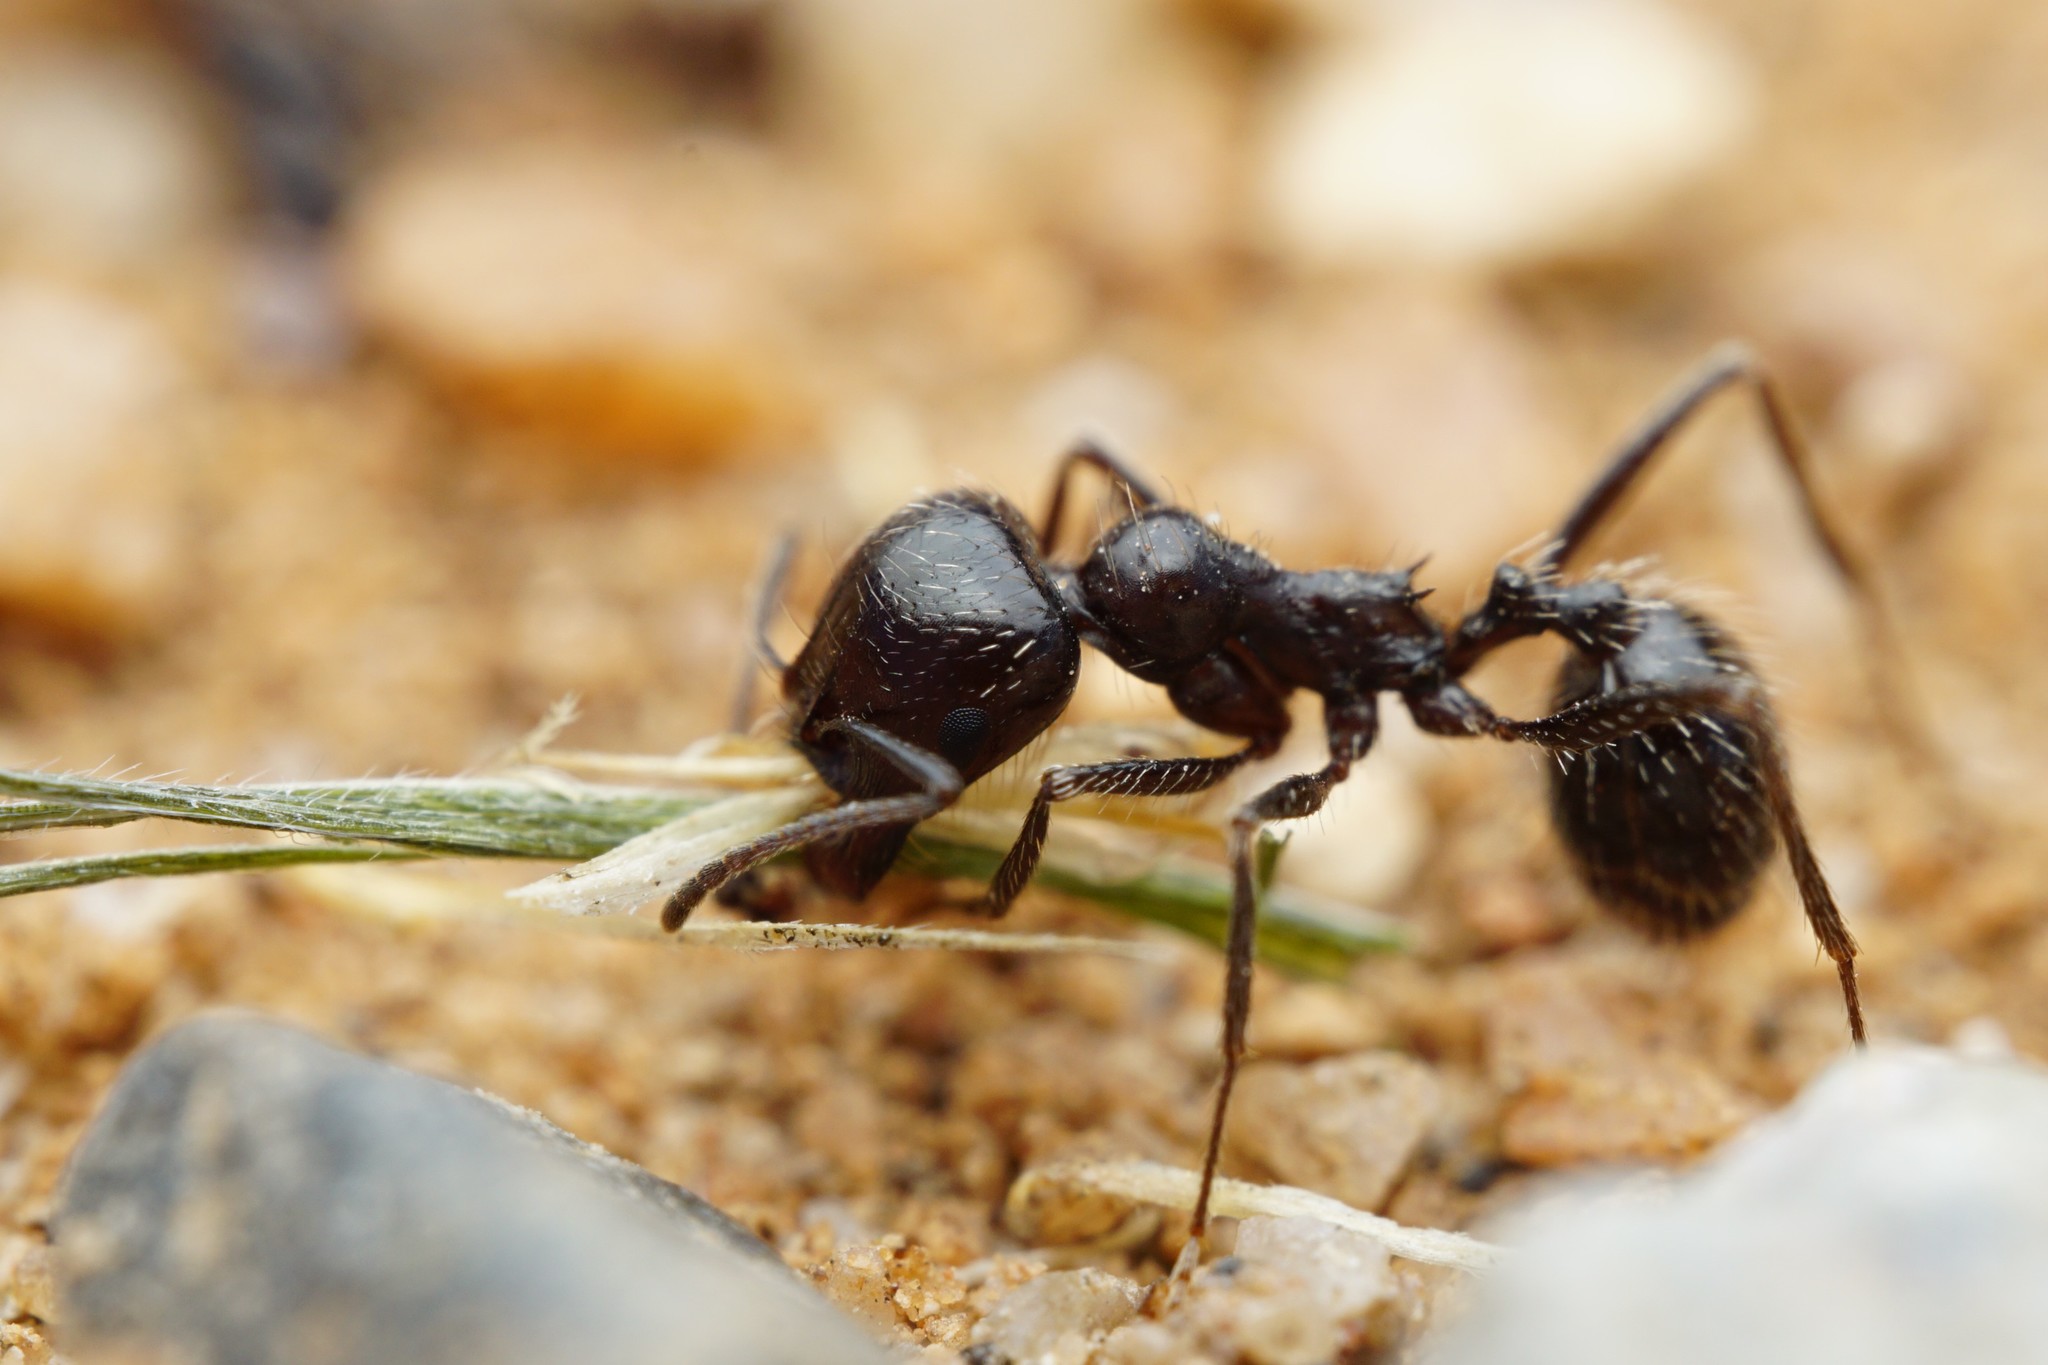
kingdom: Animalia
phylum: Arthropoda
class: Insecta
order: Hymenoptera
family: Formicidae
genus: Messor
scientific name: Messor pergandei
